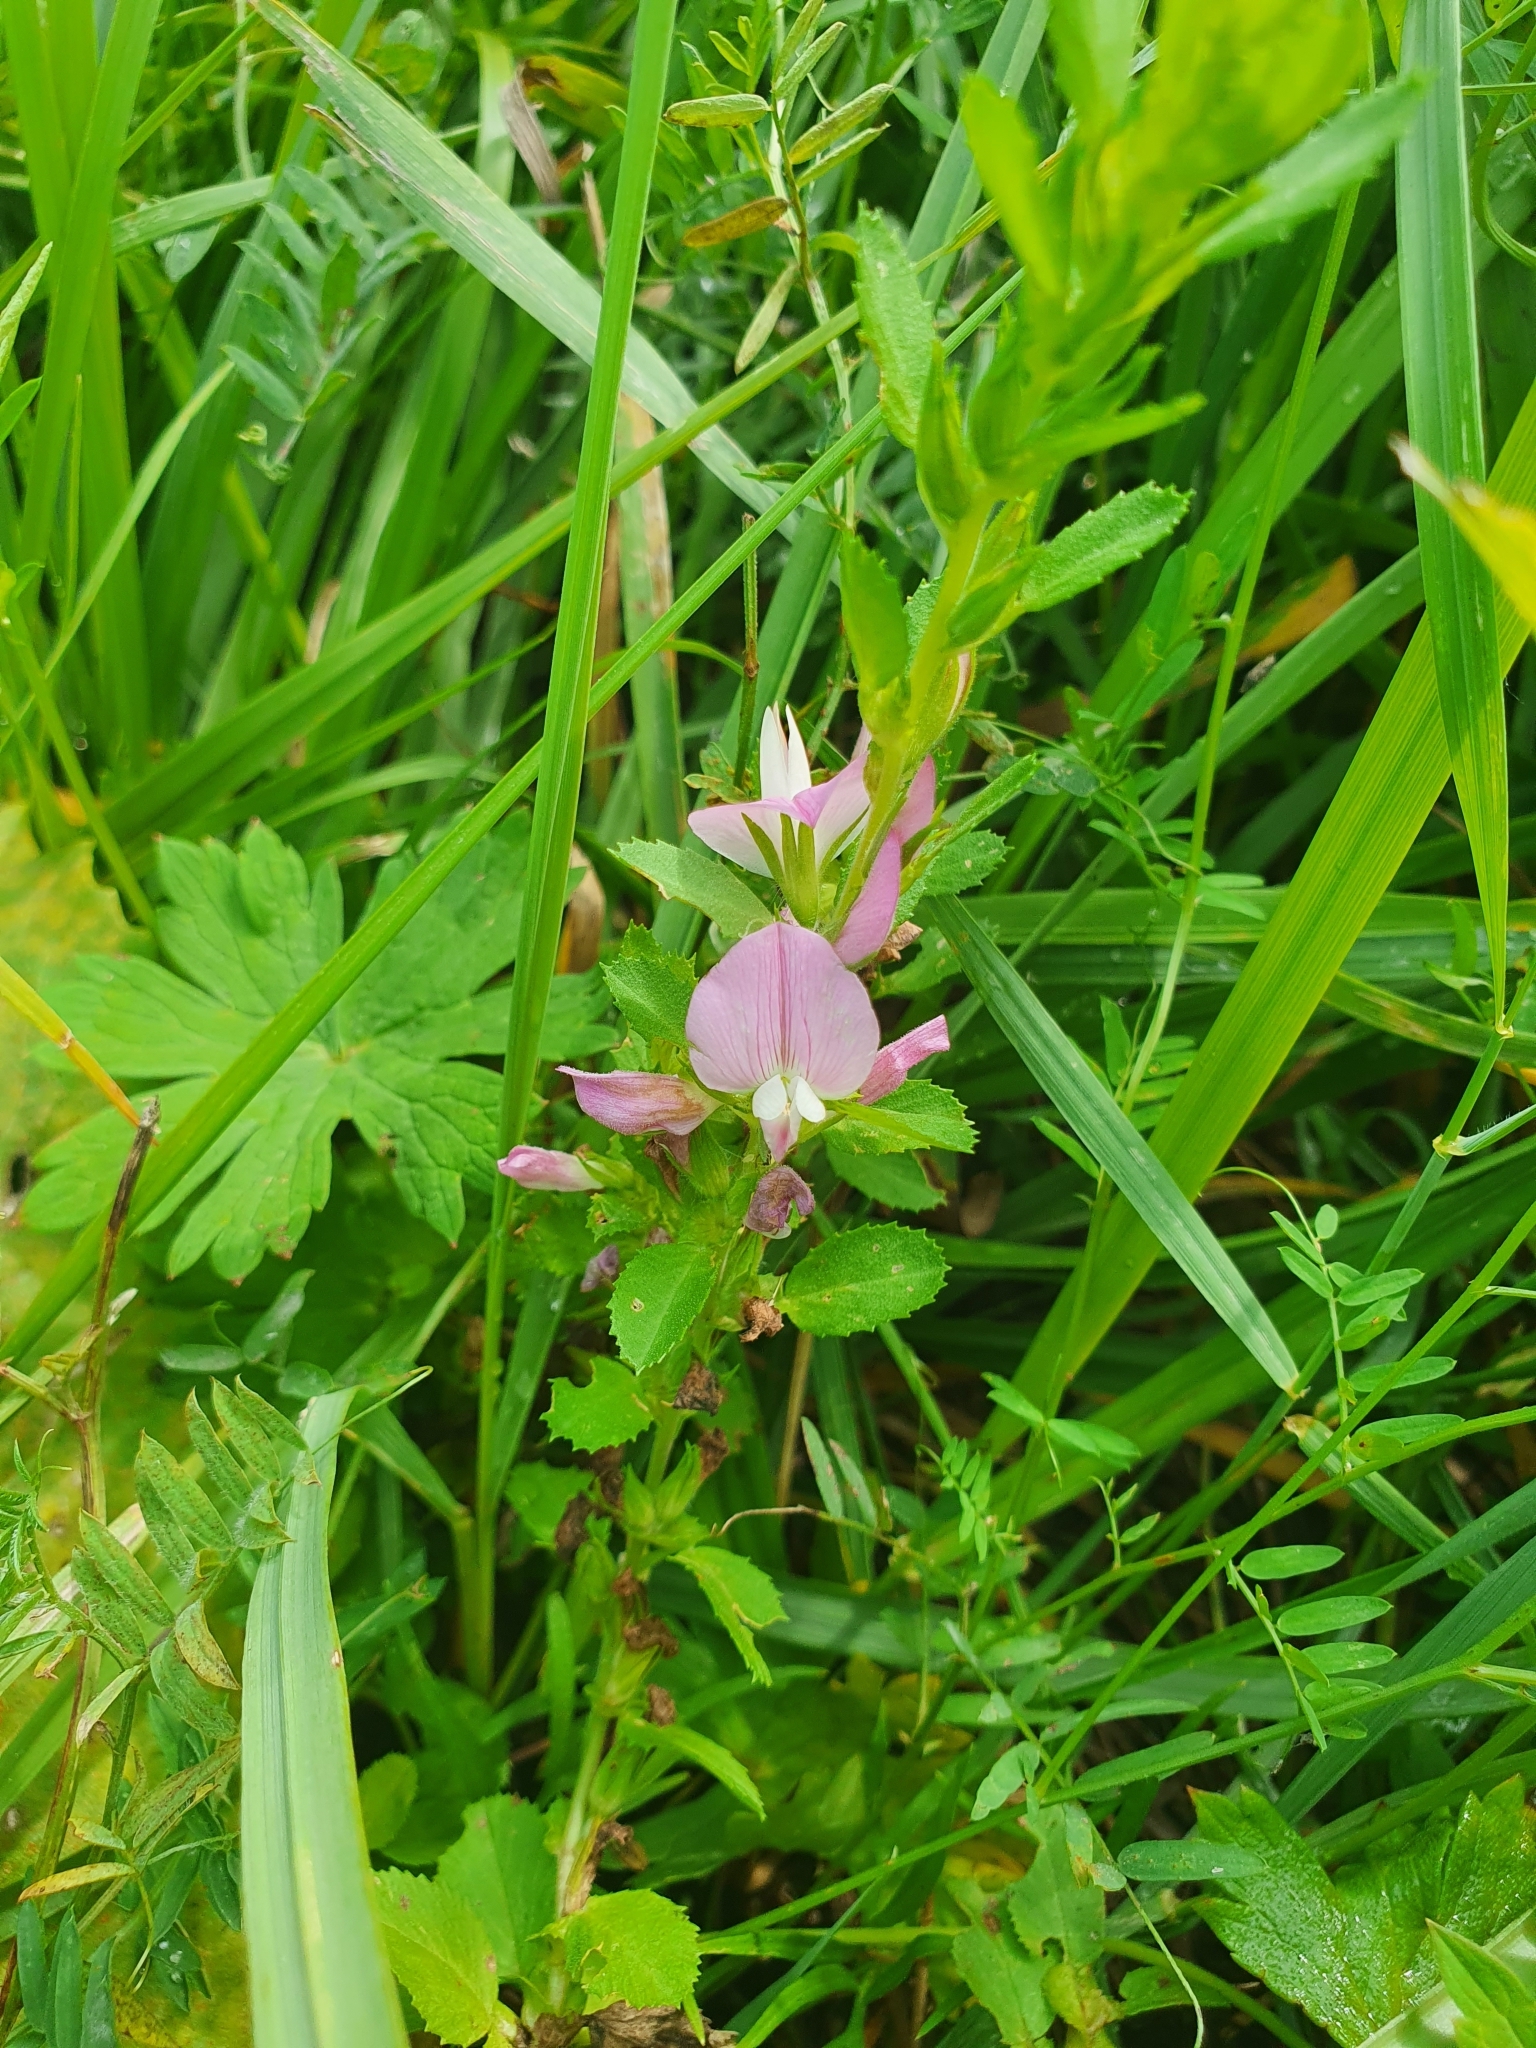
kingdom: Plantae
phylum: Tracheophyta
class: Magnoliopsida
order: Fabales
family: Fabaceae
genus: Ononis
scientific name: Ononis arvensis
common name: Field restharrow
